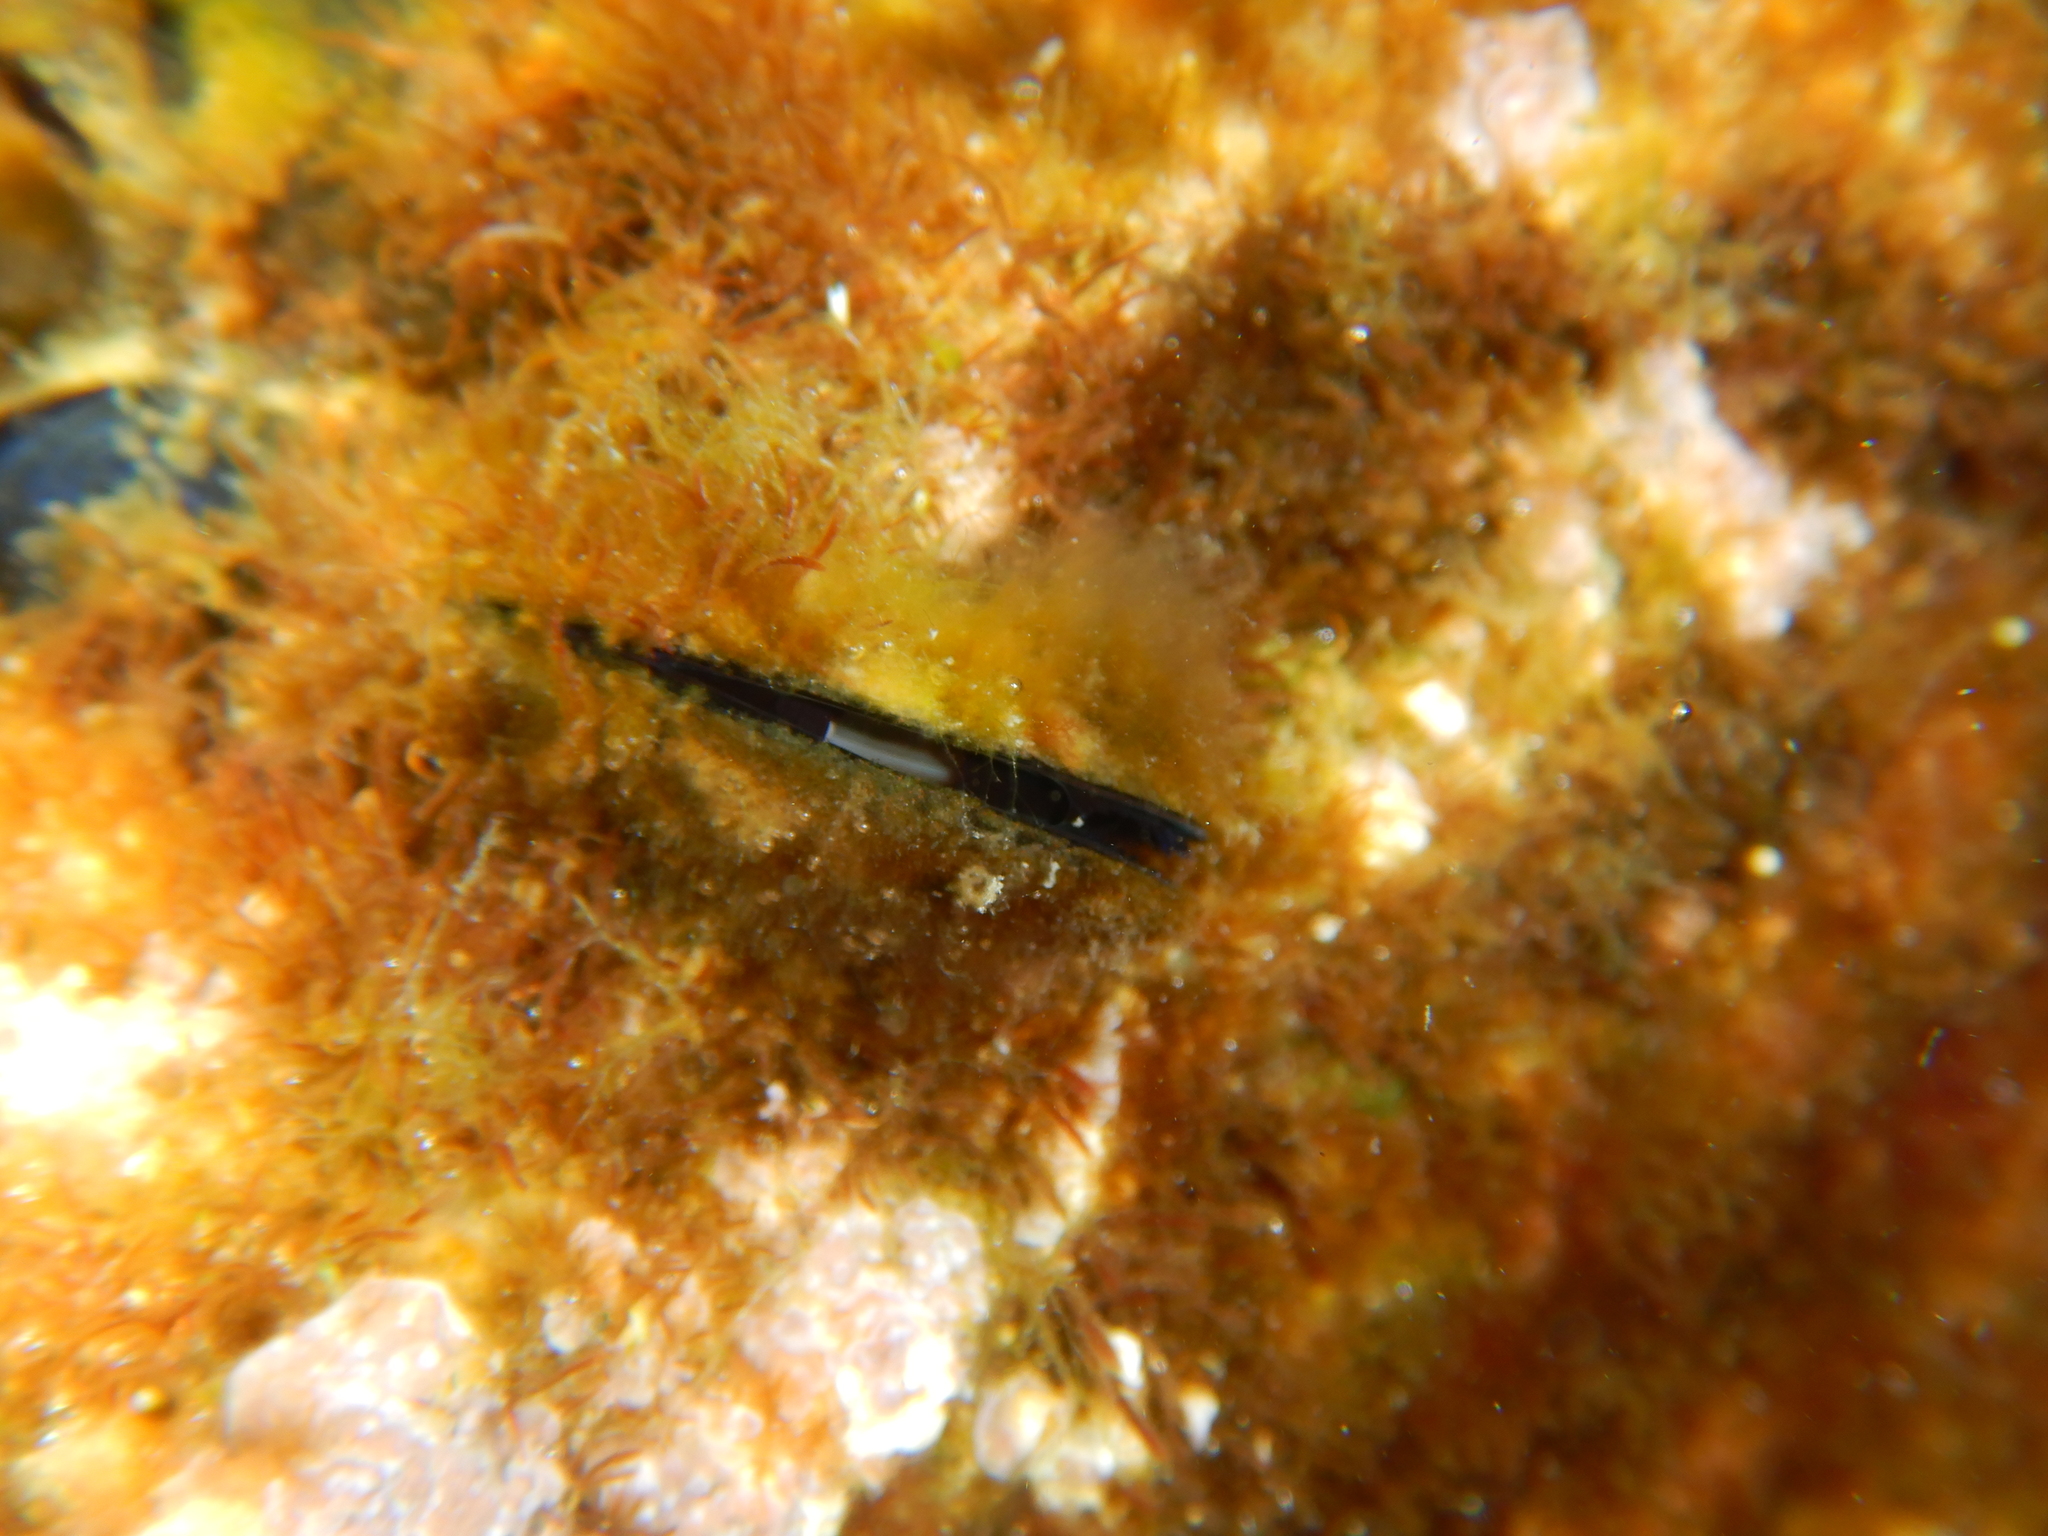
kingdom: Animalia
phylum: Mollusca
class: Bivalvia
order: Mytilida
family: Mytilidae
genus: Mytilus
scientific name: Mytilus galloprovincialis
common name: Mediterranean mussel
